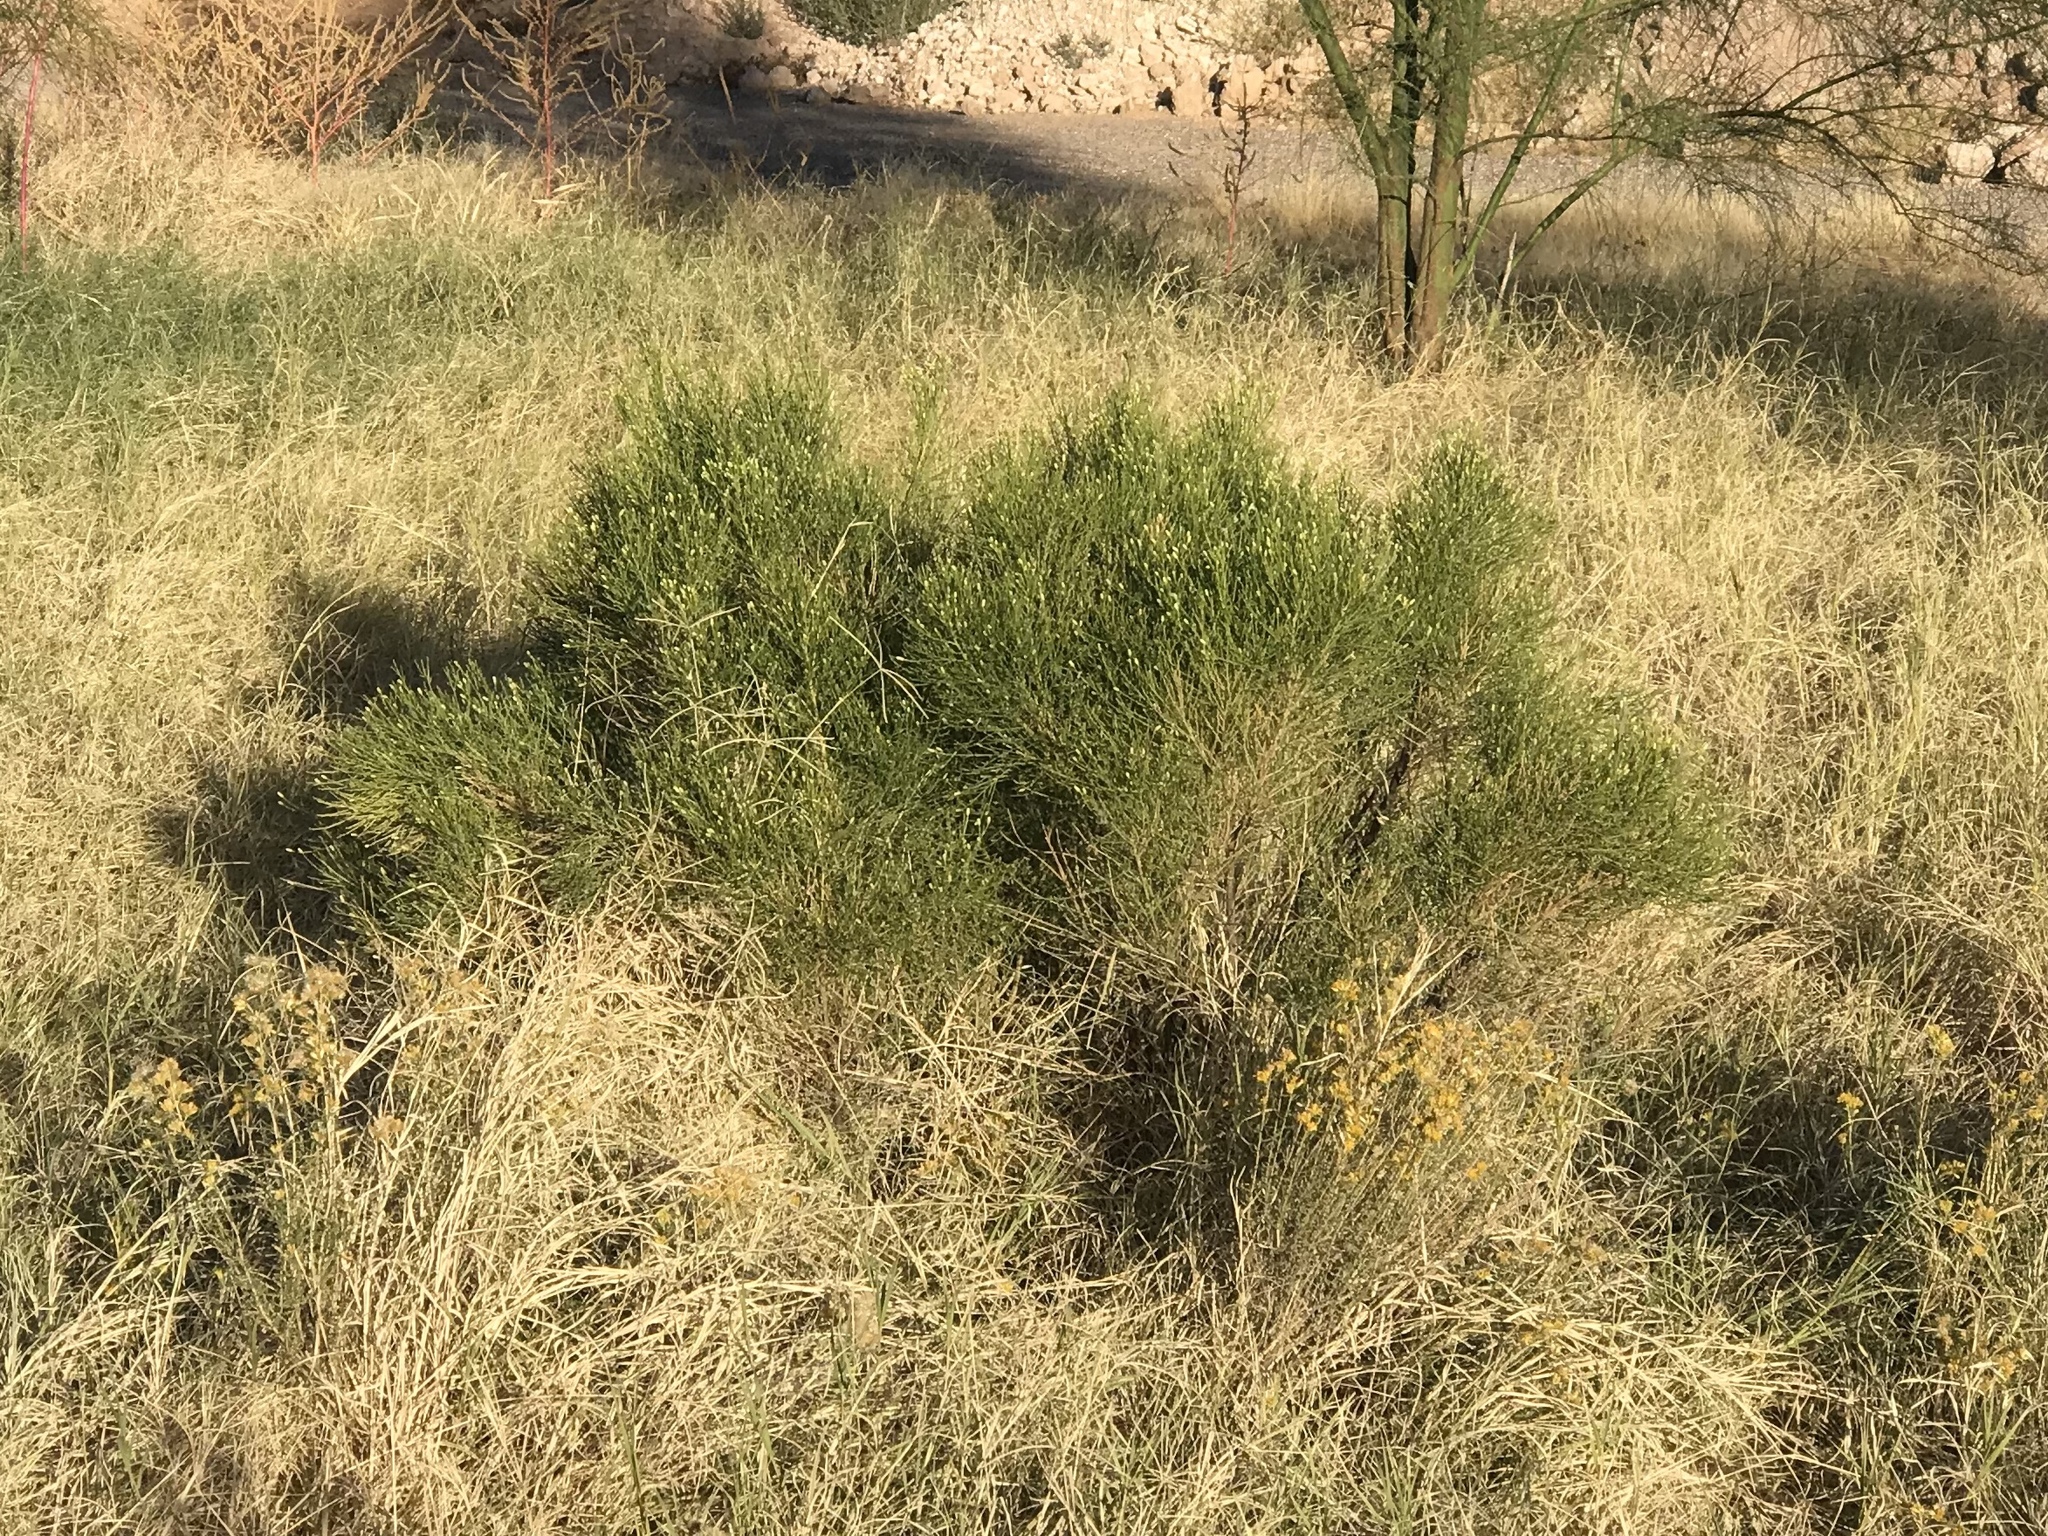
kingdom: Plantae
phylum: Tracheophyta
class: Magnoliopsida
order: Asterales
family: Asteraceae
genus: Baccharis
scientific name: Baccharis sarothroides
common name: Desert-broom
